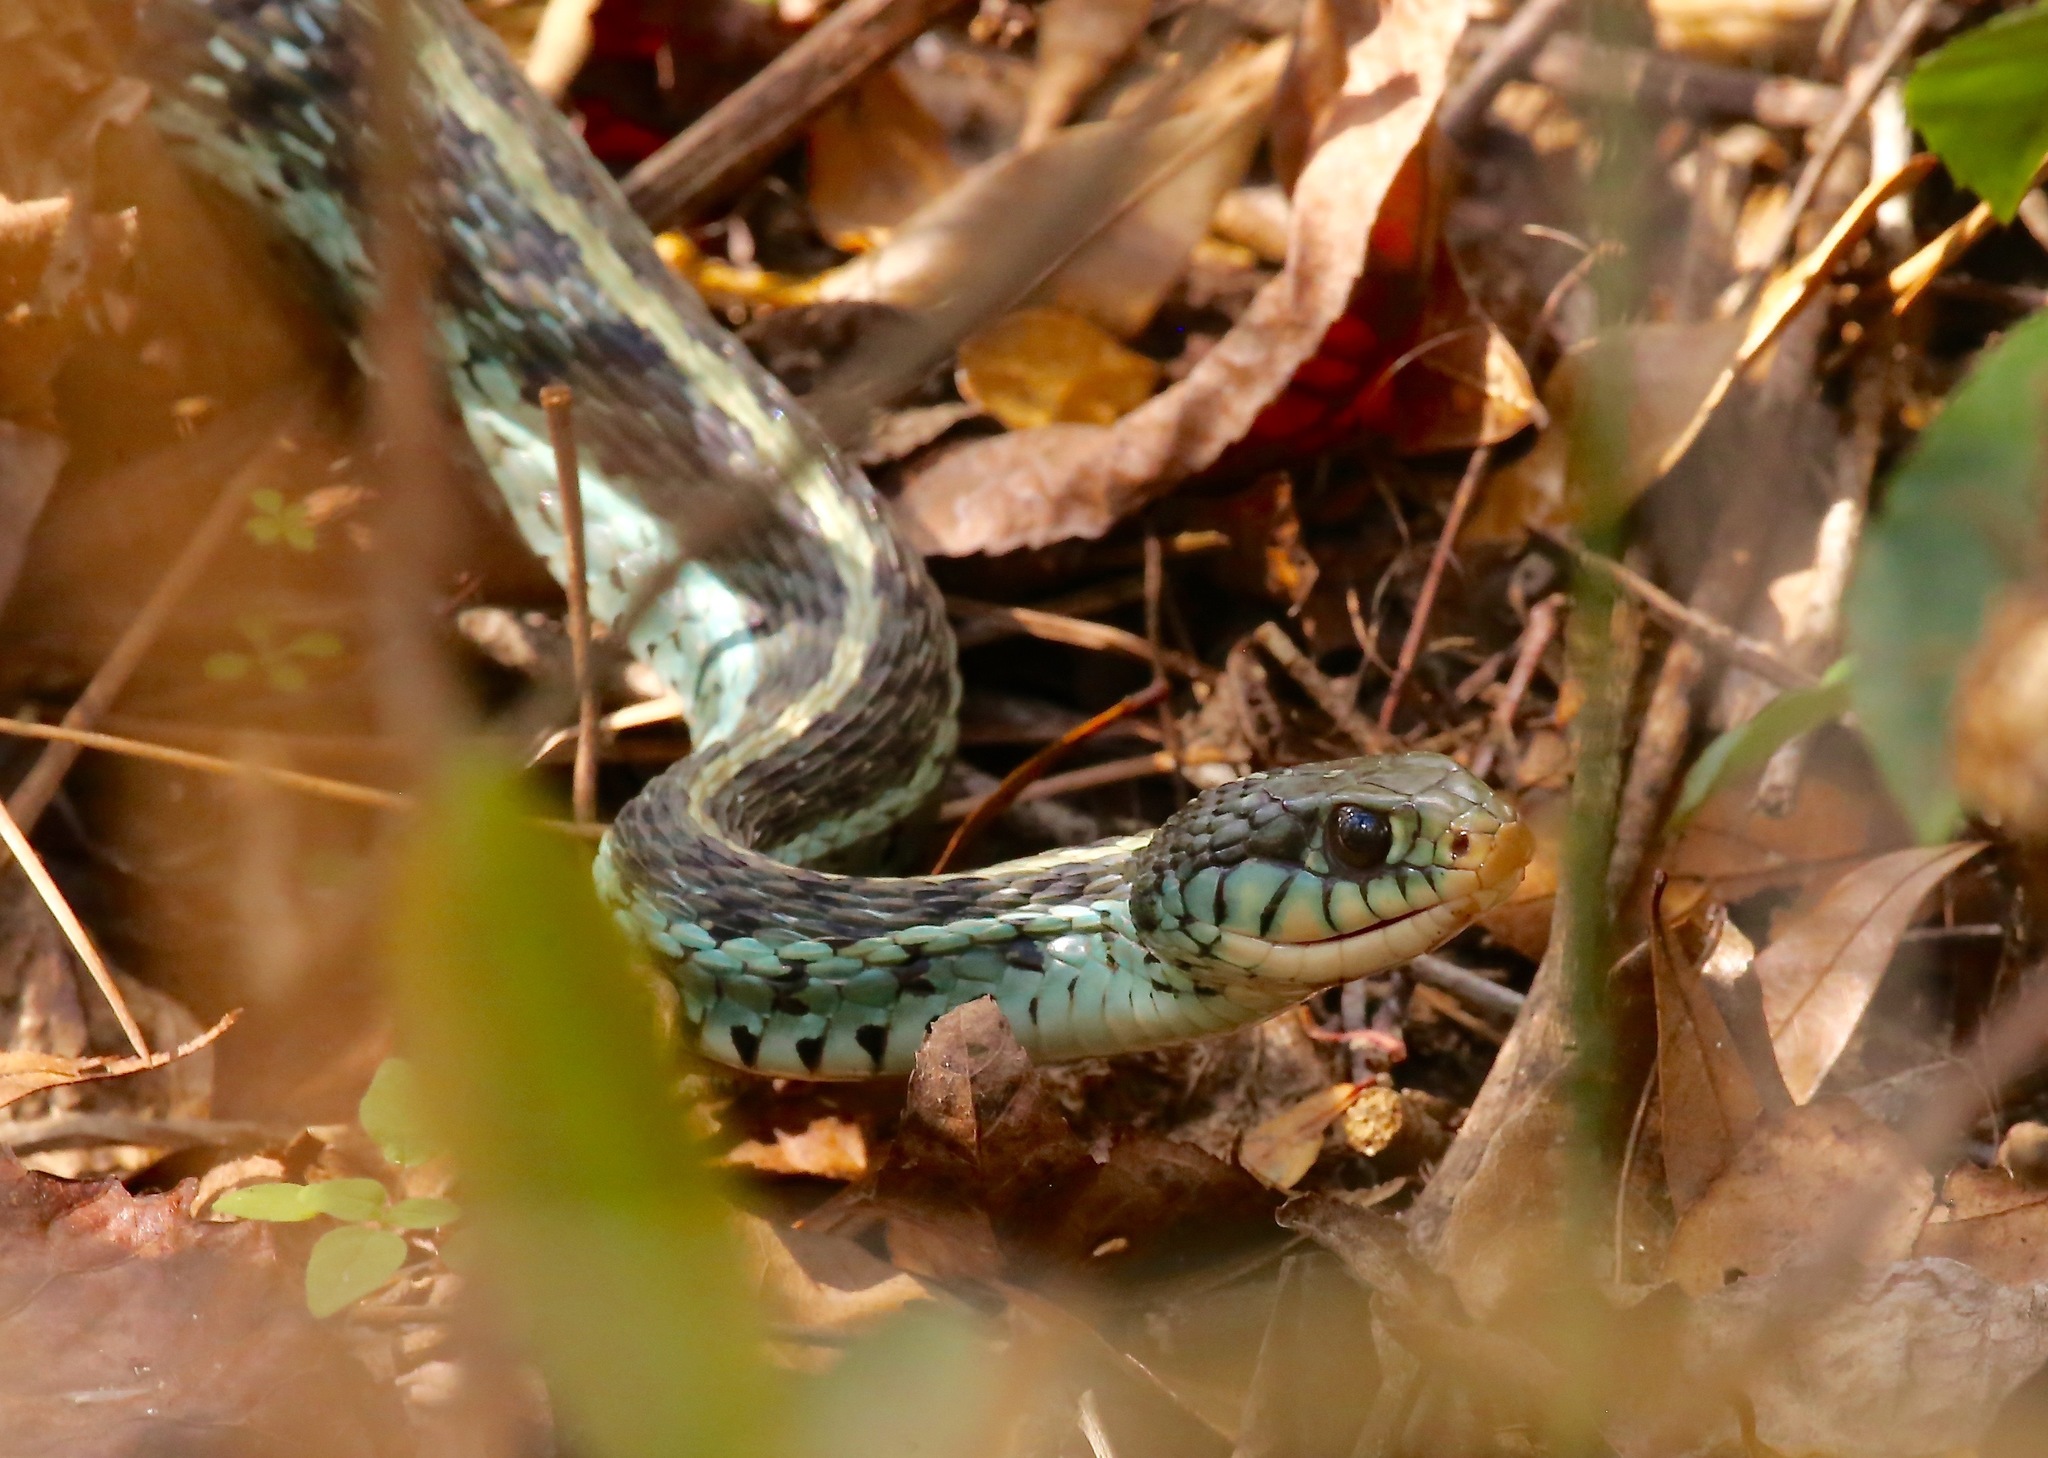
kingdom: Animalia
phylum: Chordata
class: Squamata
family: Colubridae
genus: Thamnophis
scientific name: Thamnophis sirtalis
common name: Common garter snake
